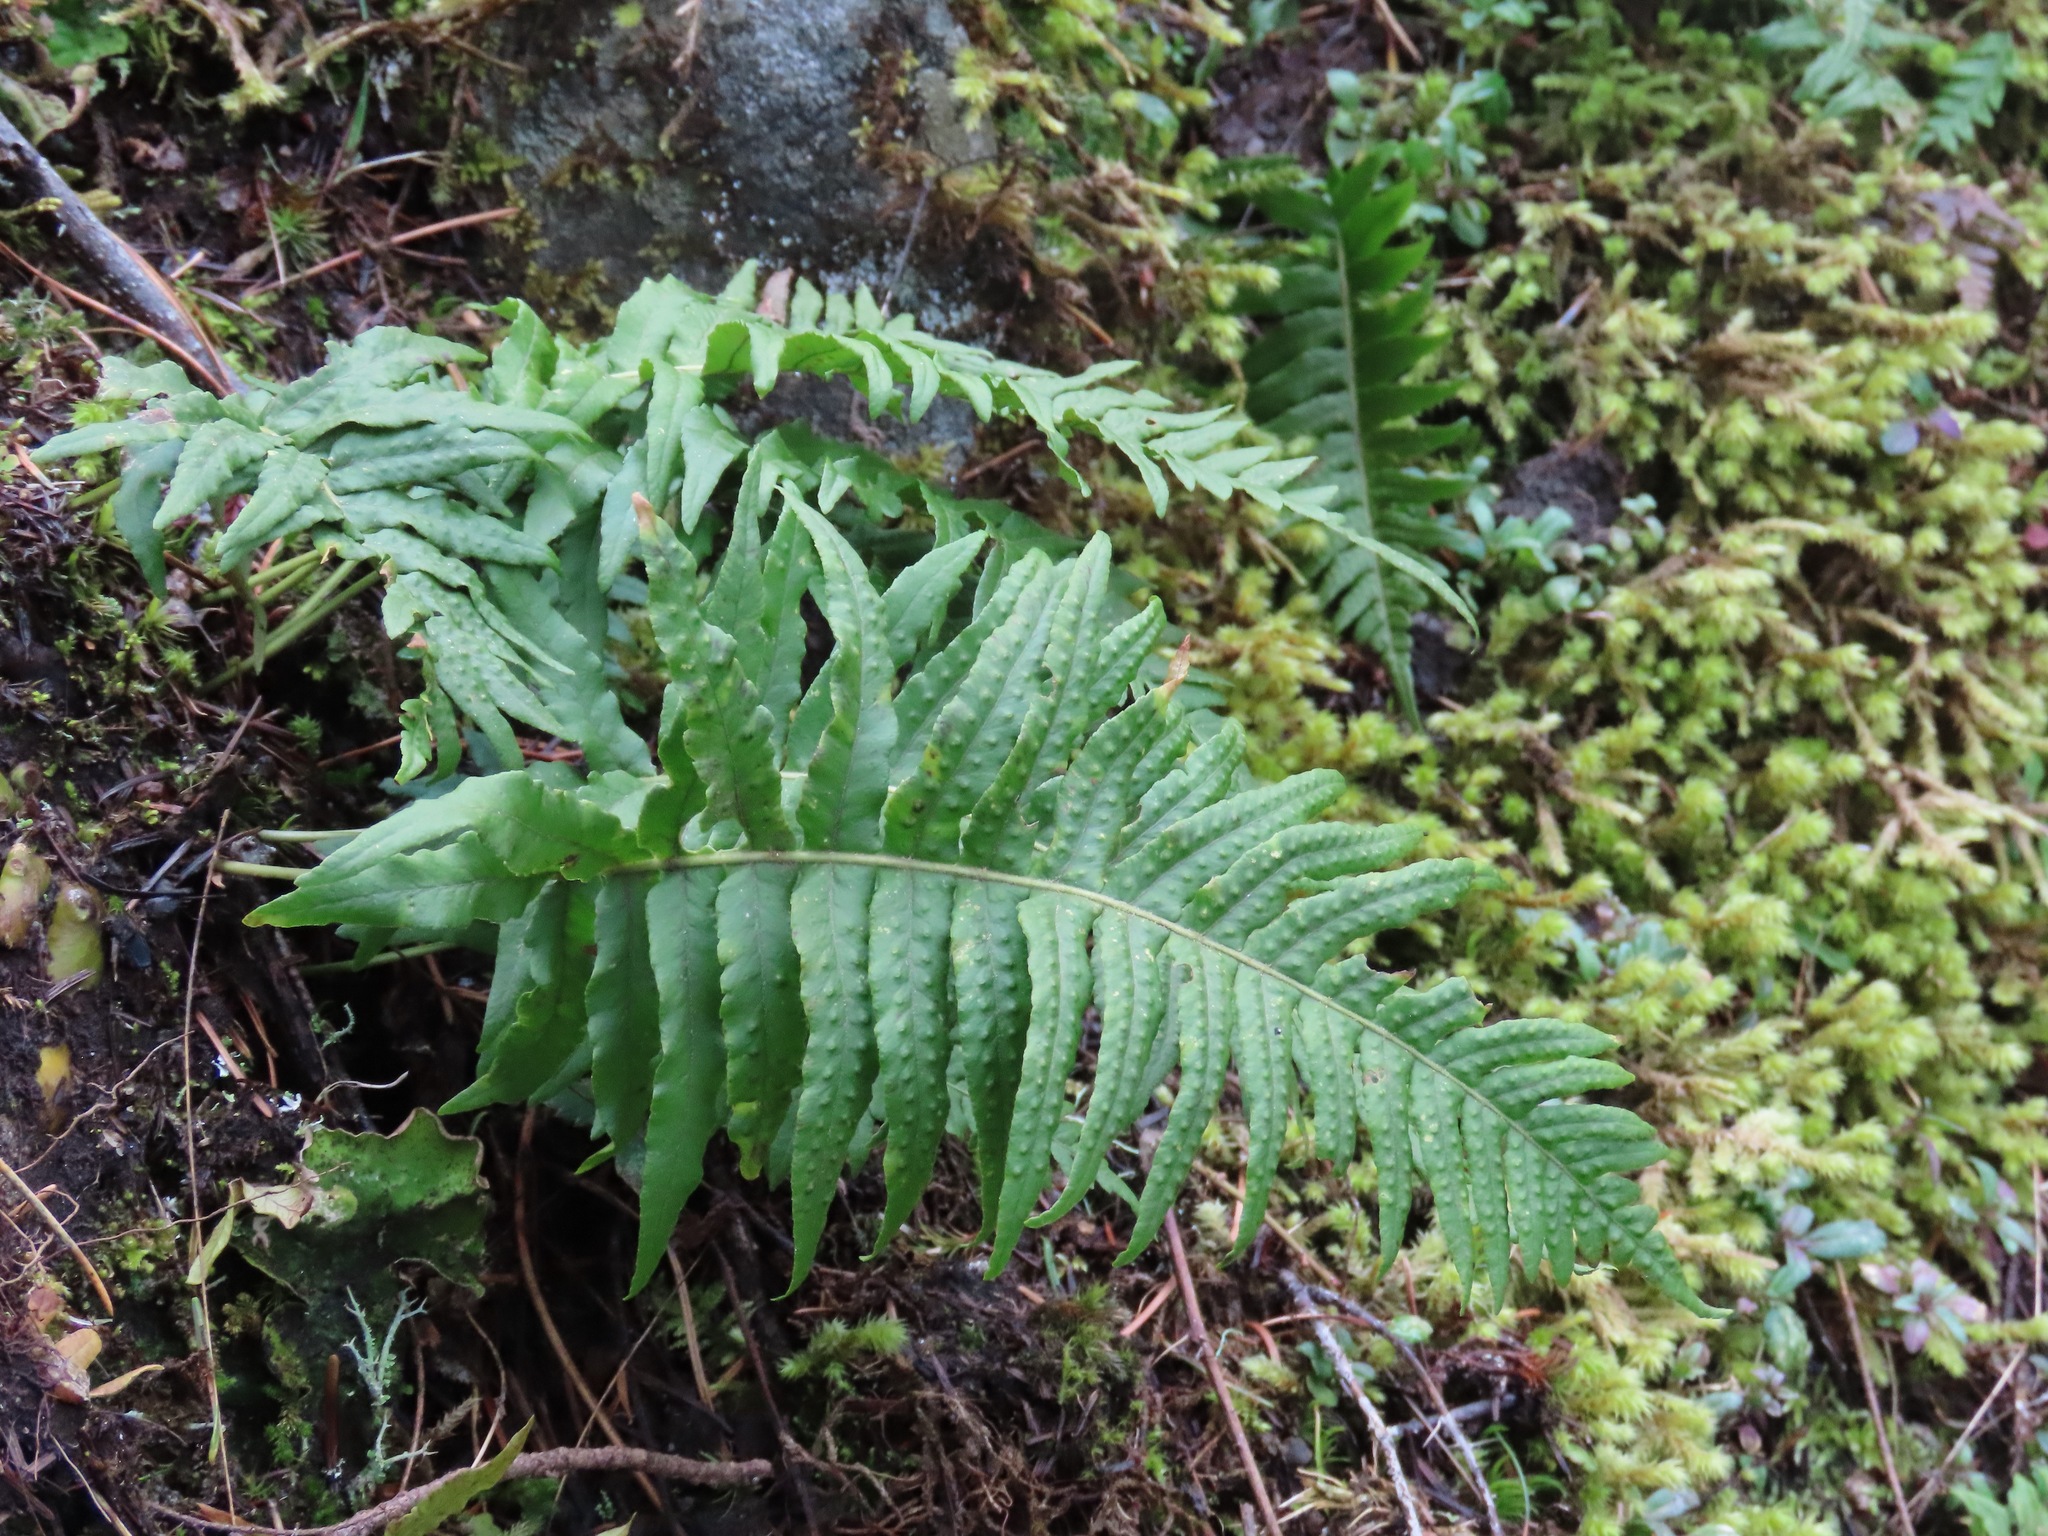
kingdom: Plantae
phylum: Tracheophyta
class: Polypodiopsida
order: Polypodiales
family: Polypodiaceae
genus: Polypodium
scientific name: Polypodium glycyrrhiza
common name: Licorice fern
